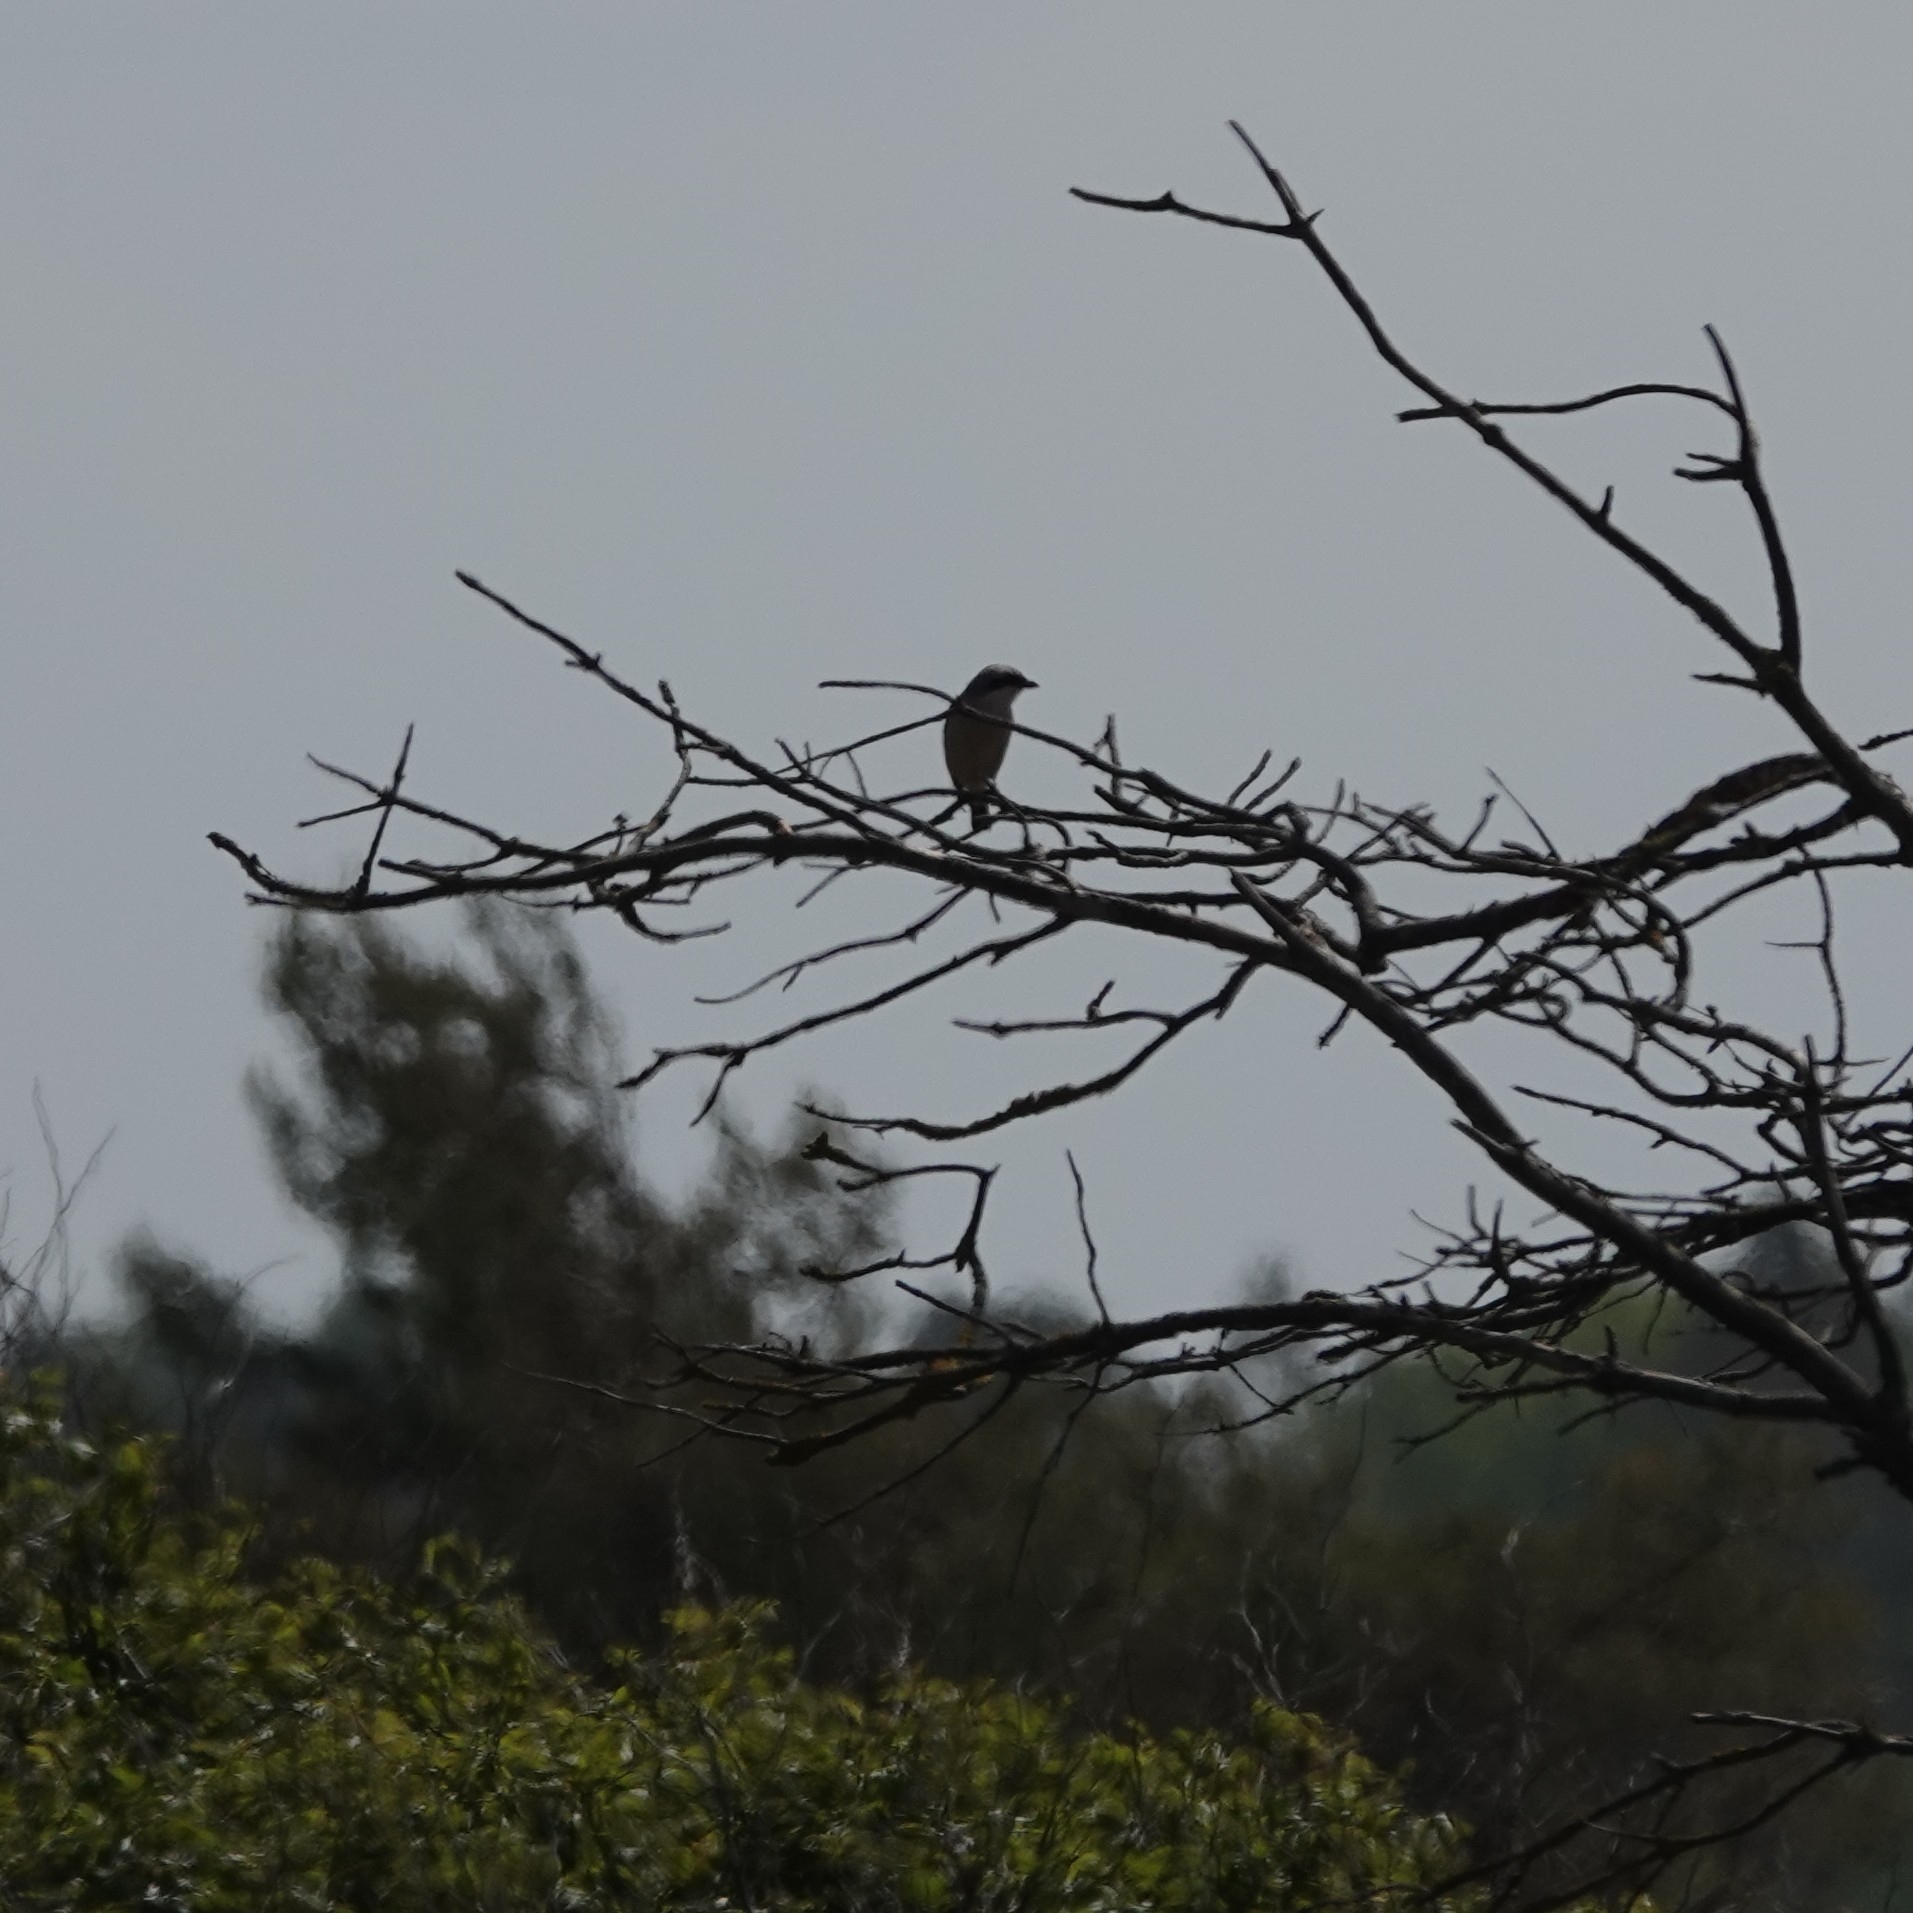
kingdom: Animalia
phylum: Chordata
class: Aves
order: Passeriformes
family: Laniidae
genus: Lanius
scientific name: Lanius collurio
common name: Red-backed shrike
